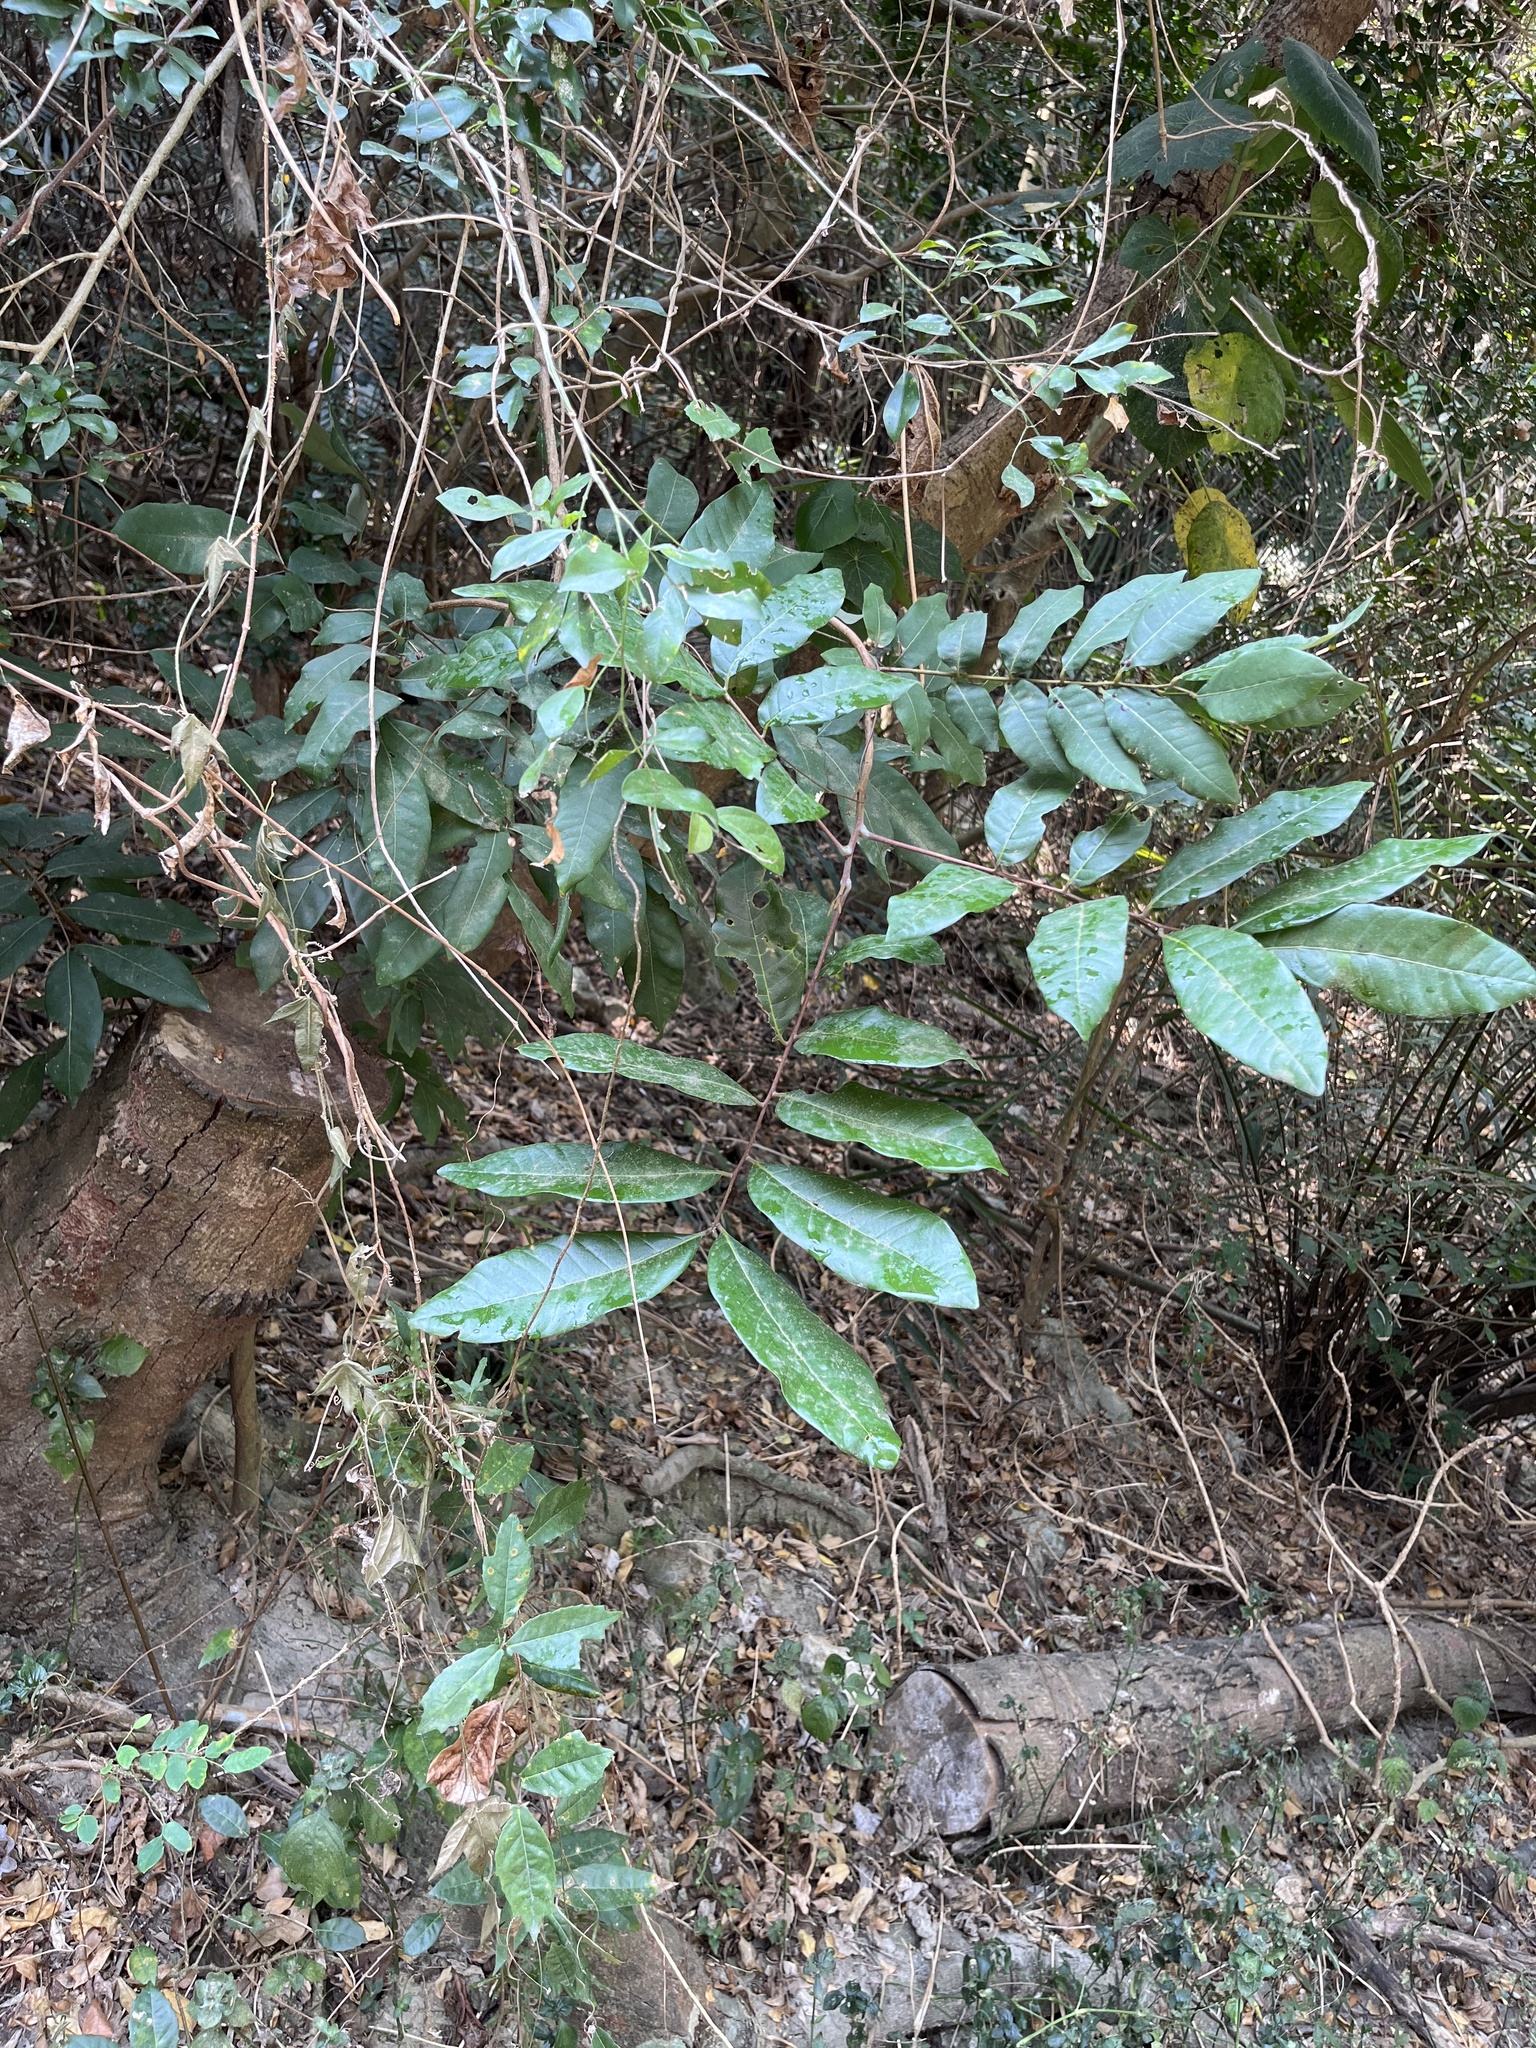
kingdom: Plantae
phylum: Tracheophyta
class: Magnoliopsida
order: Sapindales
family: Sapindaceae
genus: Dimocarpus
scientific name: Dimocarpus longan
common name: Longan
